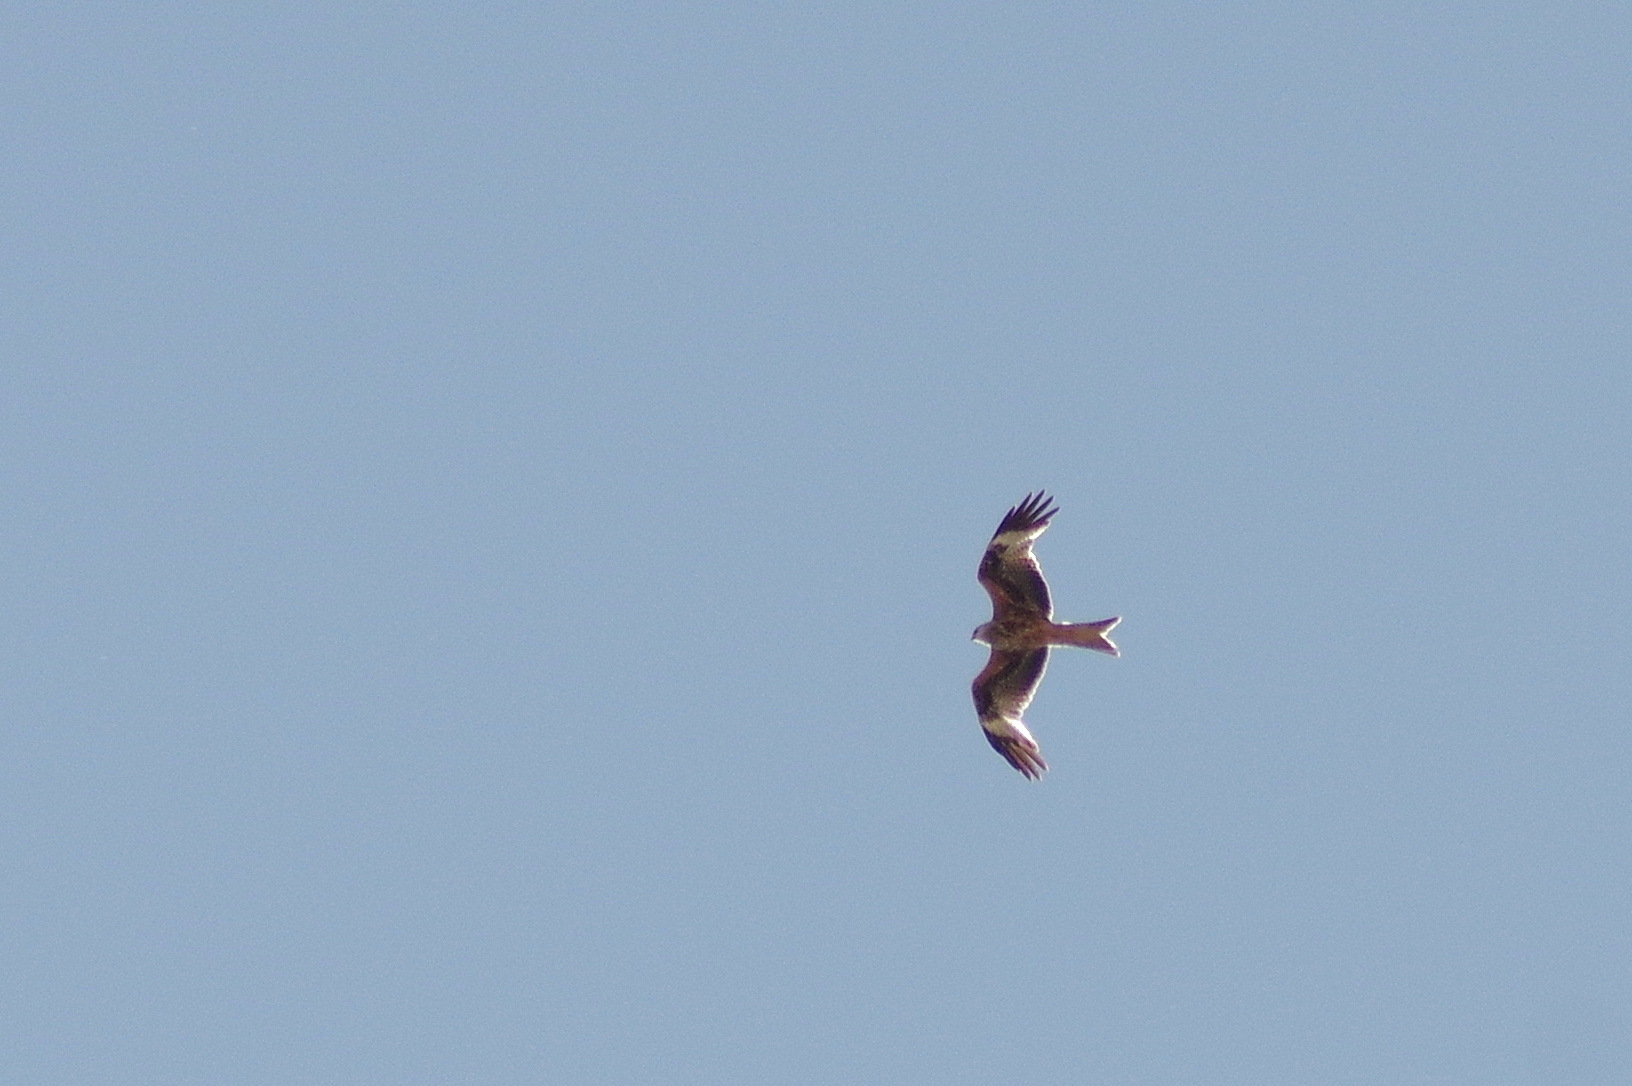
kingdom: Animalia
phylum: Chordata
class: Aves
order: Accipitriformes
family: Accipitridae
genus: Milvus
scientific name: Milvus milvus
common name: Red kite
